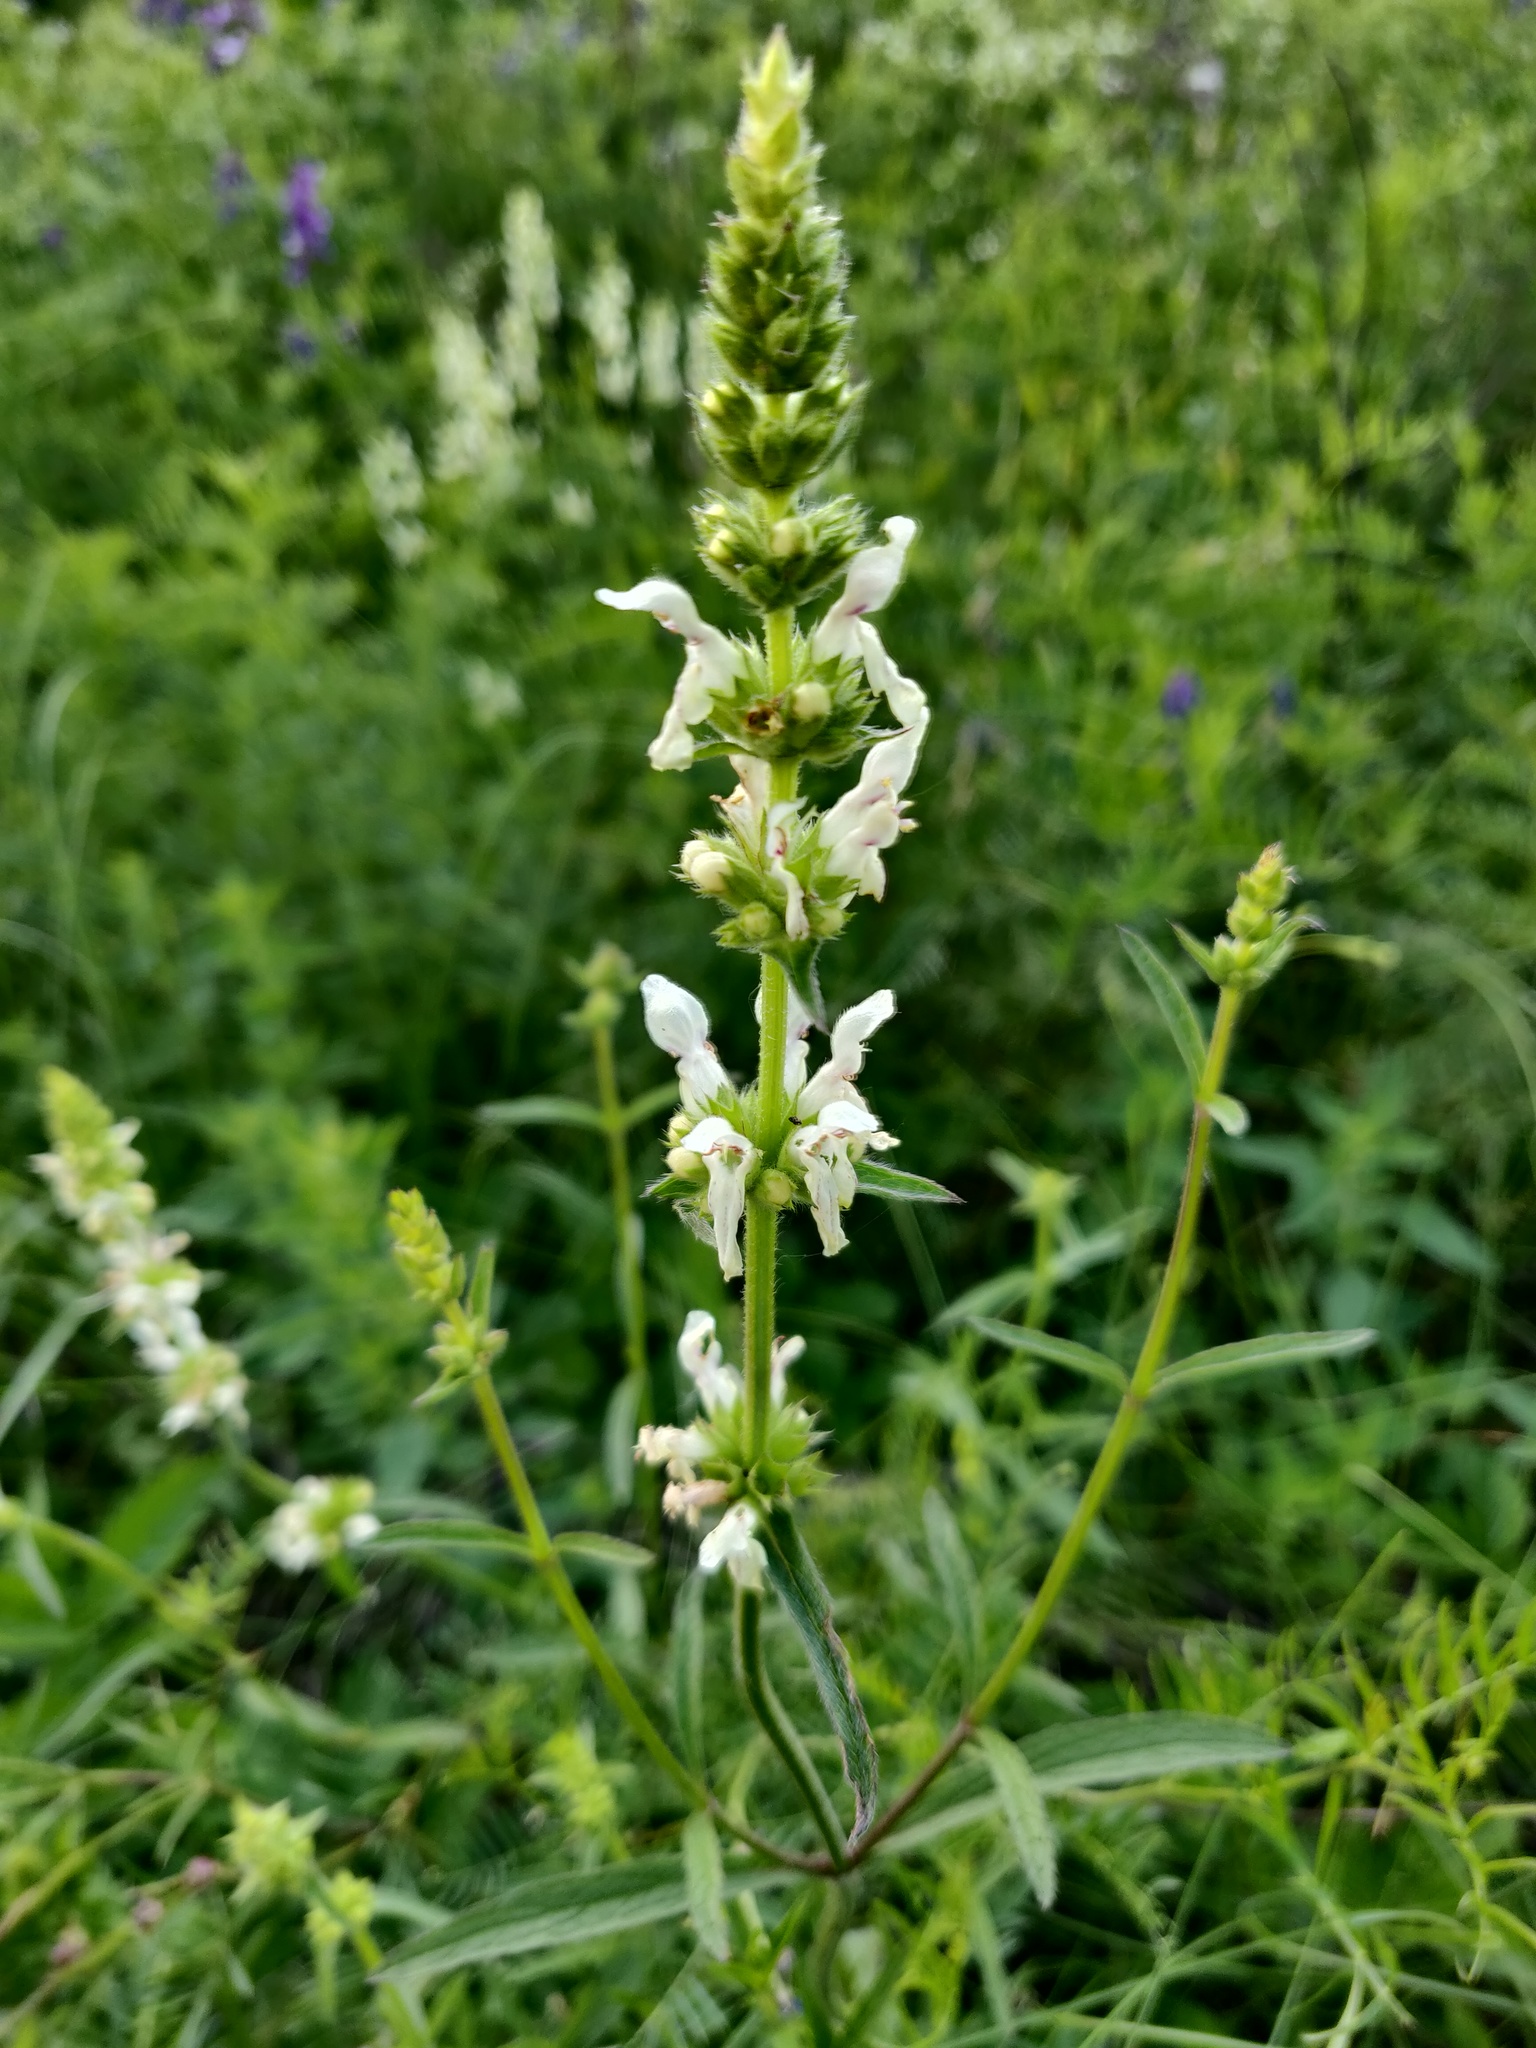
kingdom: Plantae
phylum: Tracheophyta
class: Magnoliopsida
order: Lamiales
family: Lamiaceae
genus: Stachys
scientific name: Stachys recta
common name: Perennial yellow-woundwort
